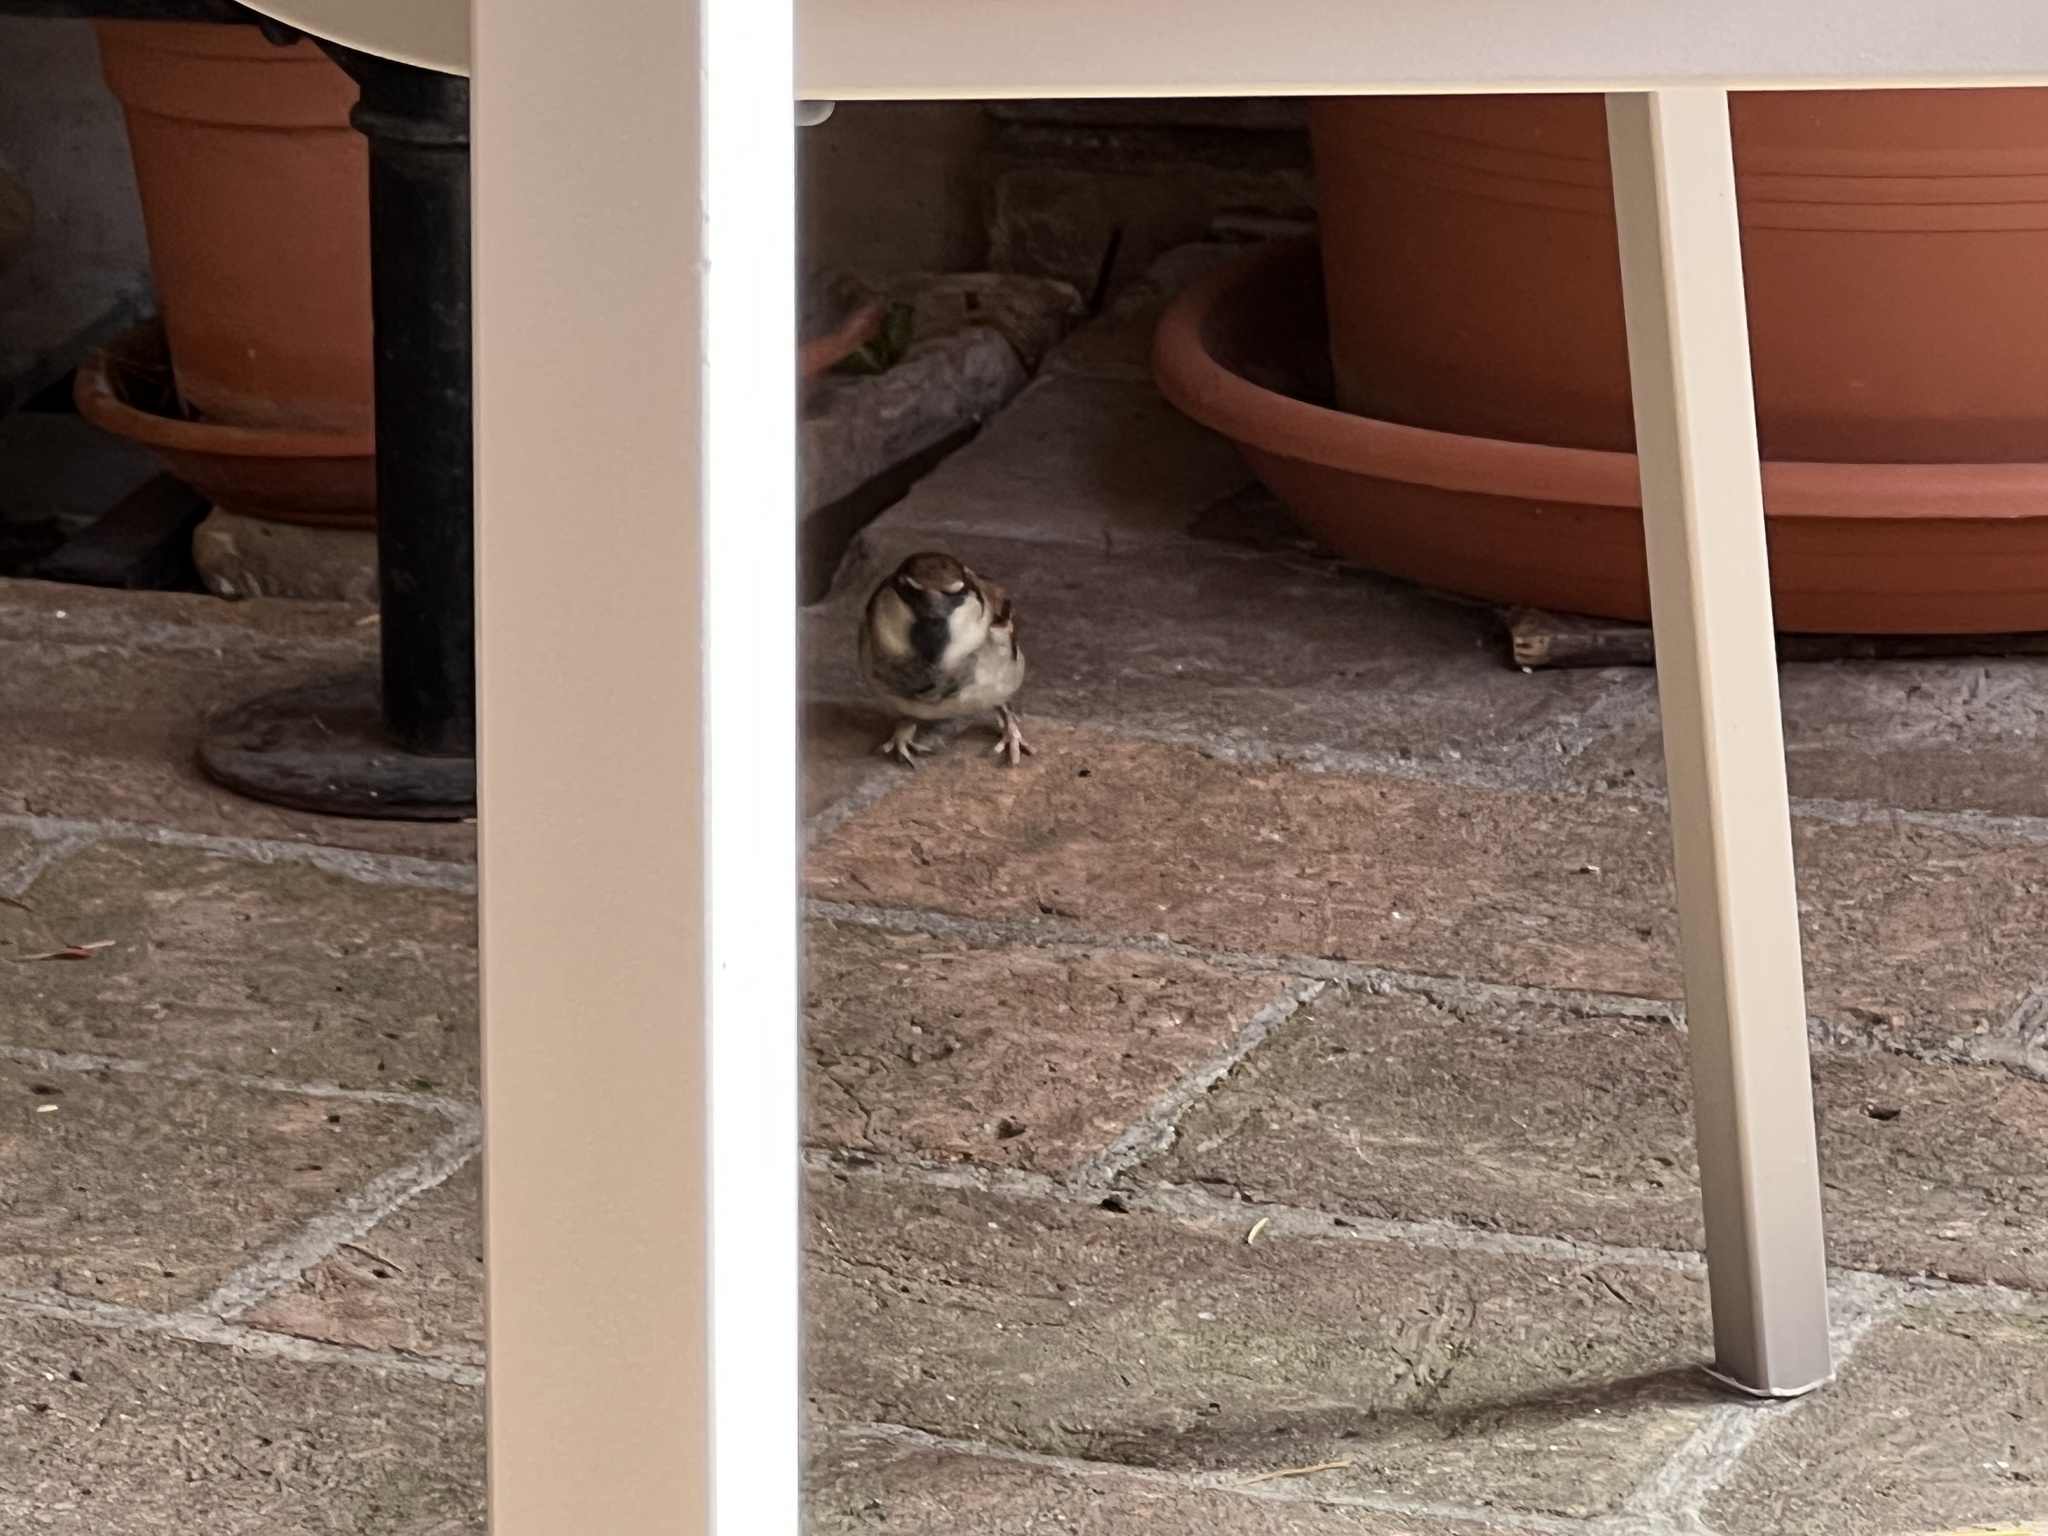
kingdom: Animalia
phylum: Chordata
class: Aves
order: Passeriformes
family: Passeridae
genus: Passer
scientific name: Passer italiae
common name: Italian sparrow
